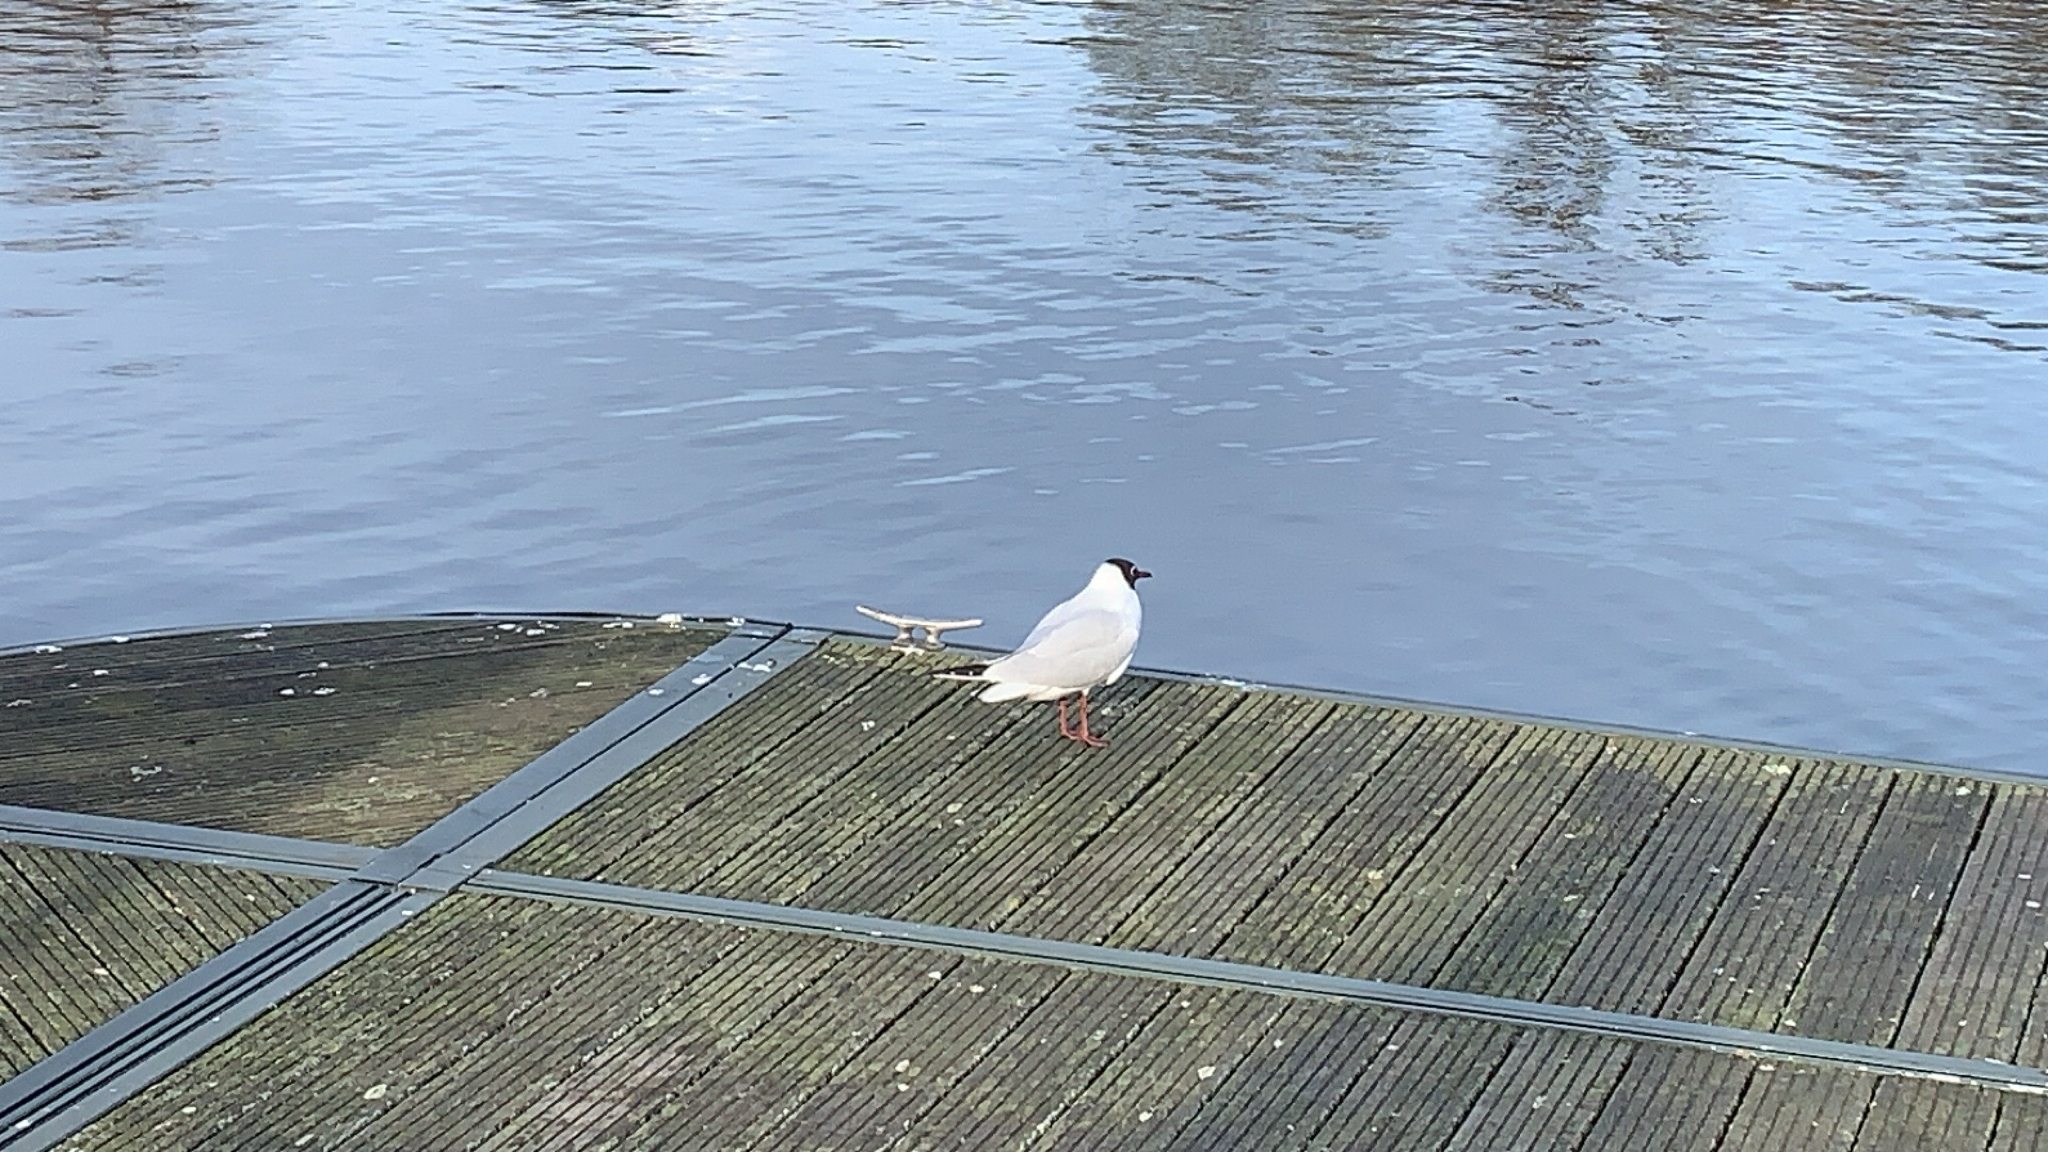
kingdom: Animalia
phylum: Chordata
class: Aves
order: Charadriiformes
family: Laridae
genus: Chroicocephalus
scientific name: Chroicocephalus ridibundus
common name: Black-headed gull
